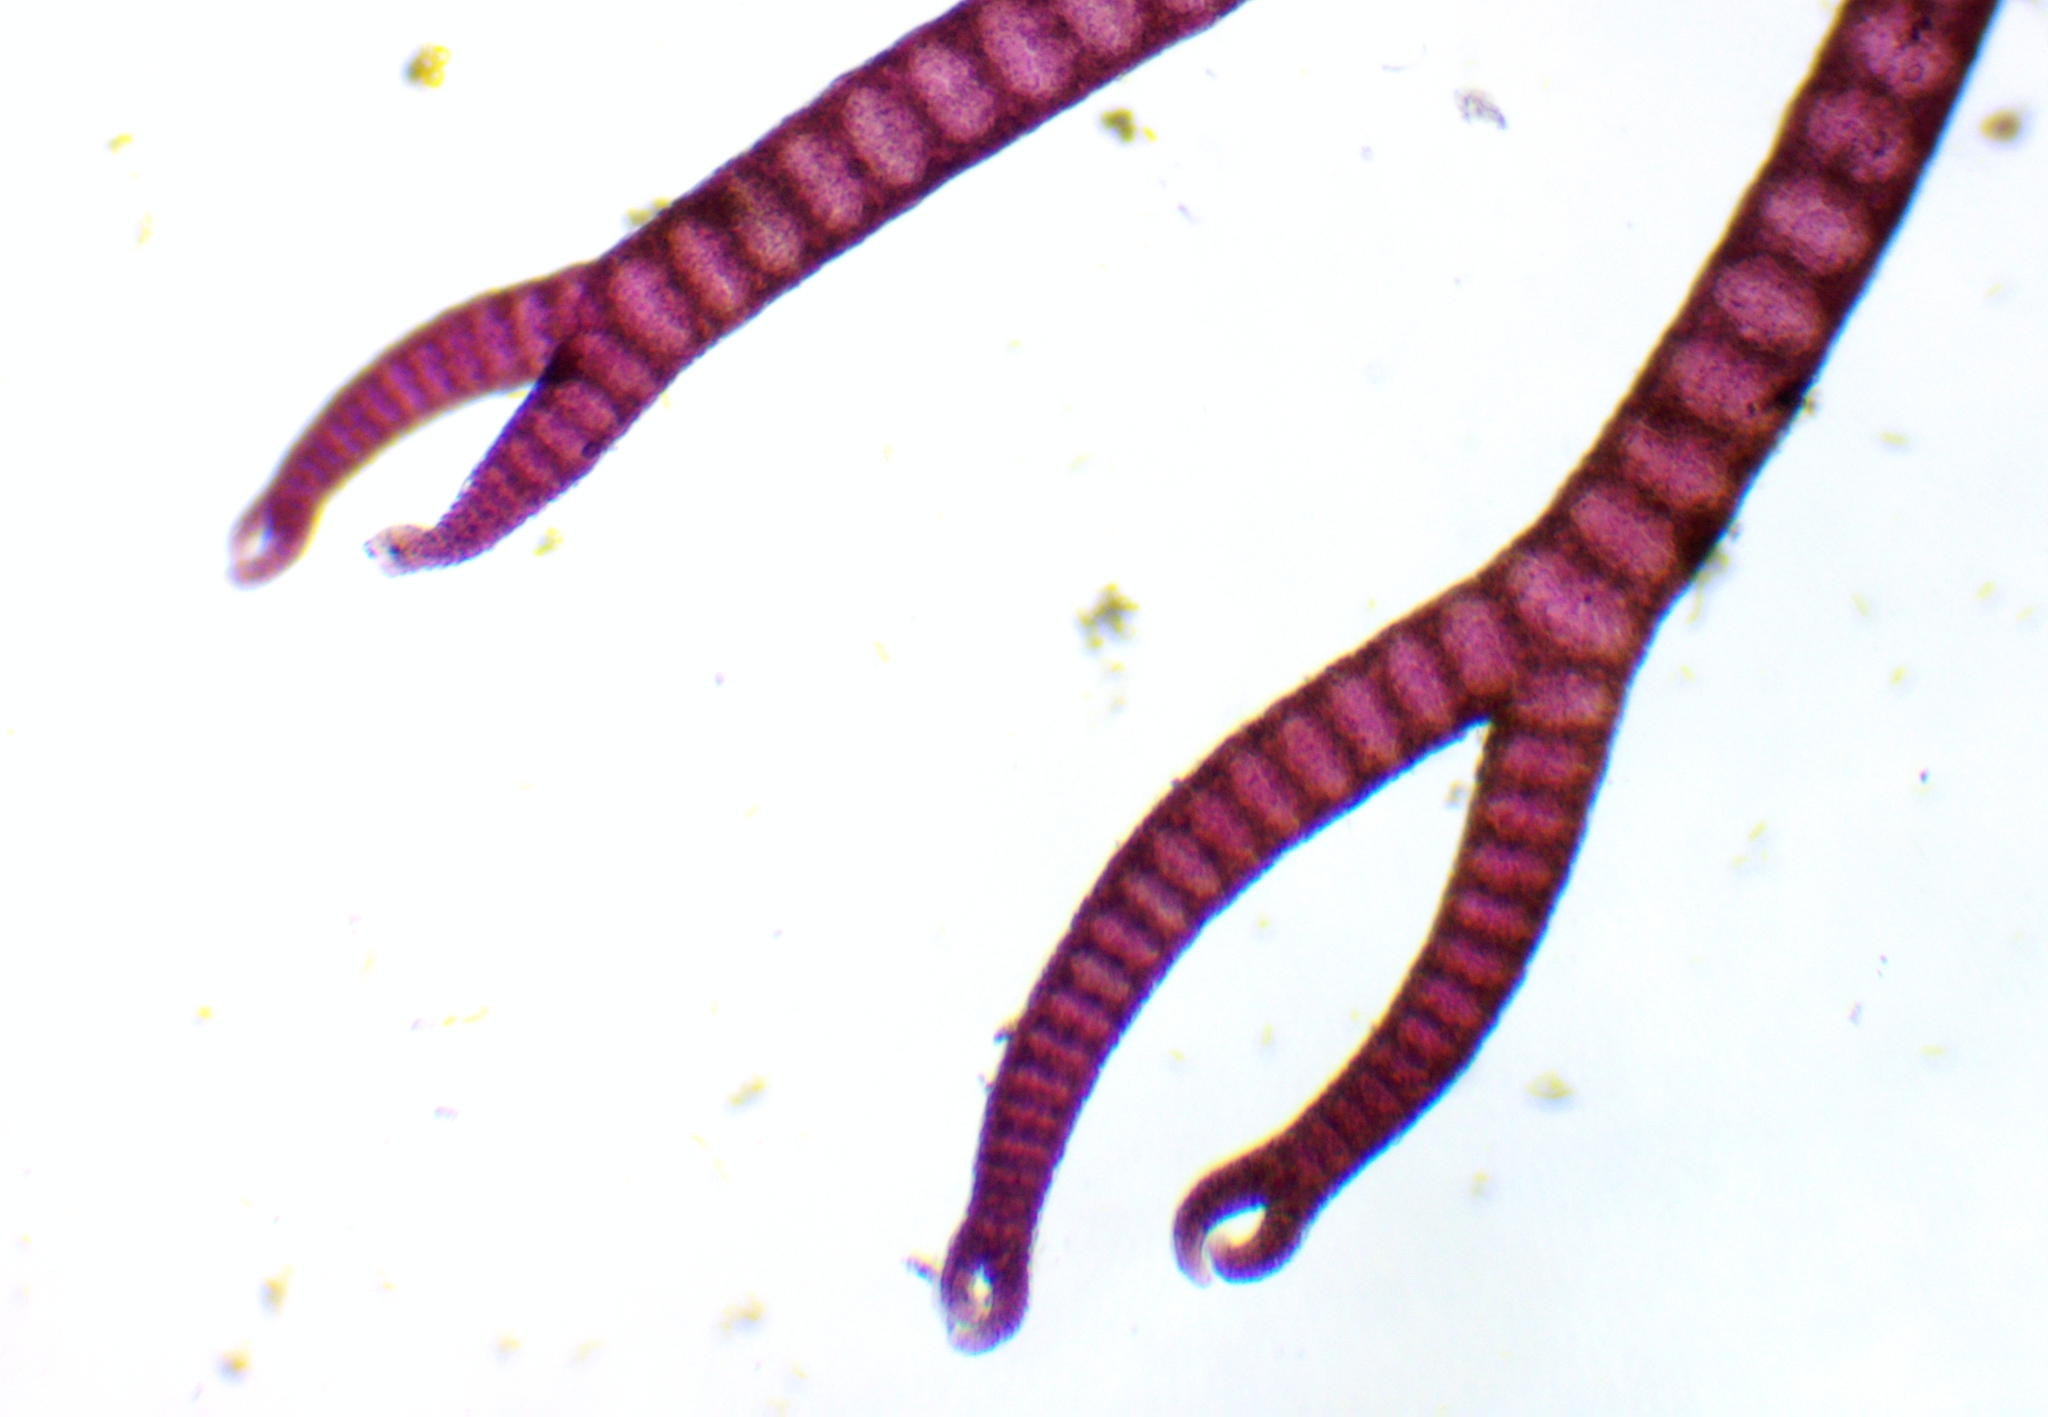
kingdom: Plantae
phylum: Rhodophyta
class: Florideophyceae
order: Ceramiales
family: Ceramiaceae
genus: Ceramium
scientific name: Ceramium virgatum
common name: Red hornweed
